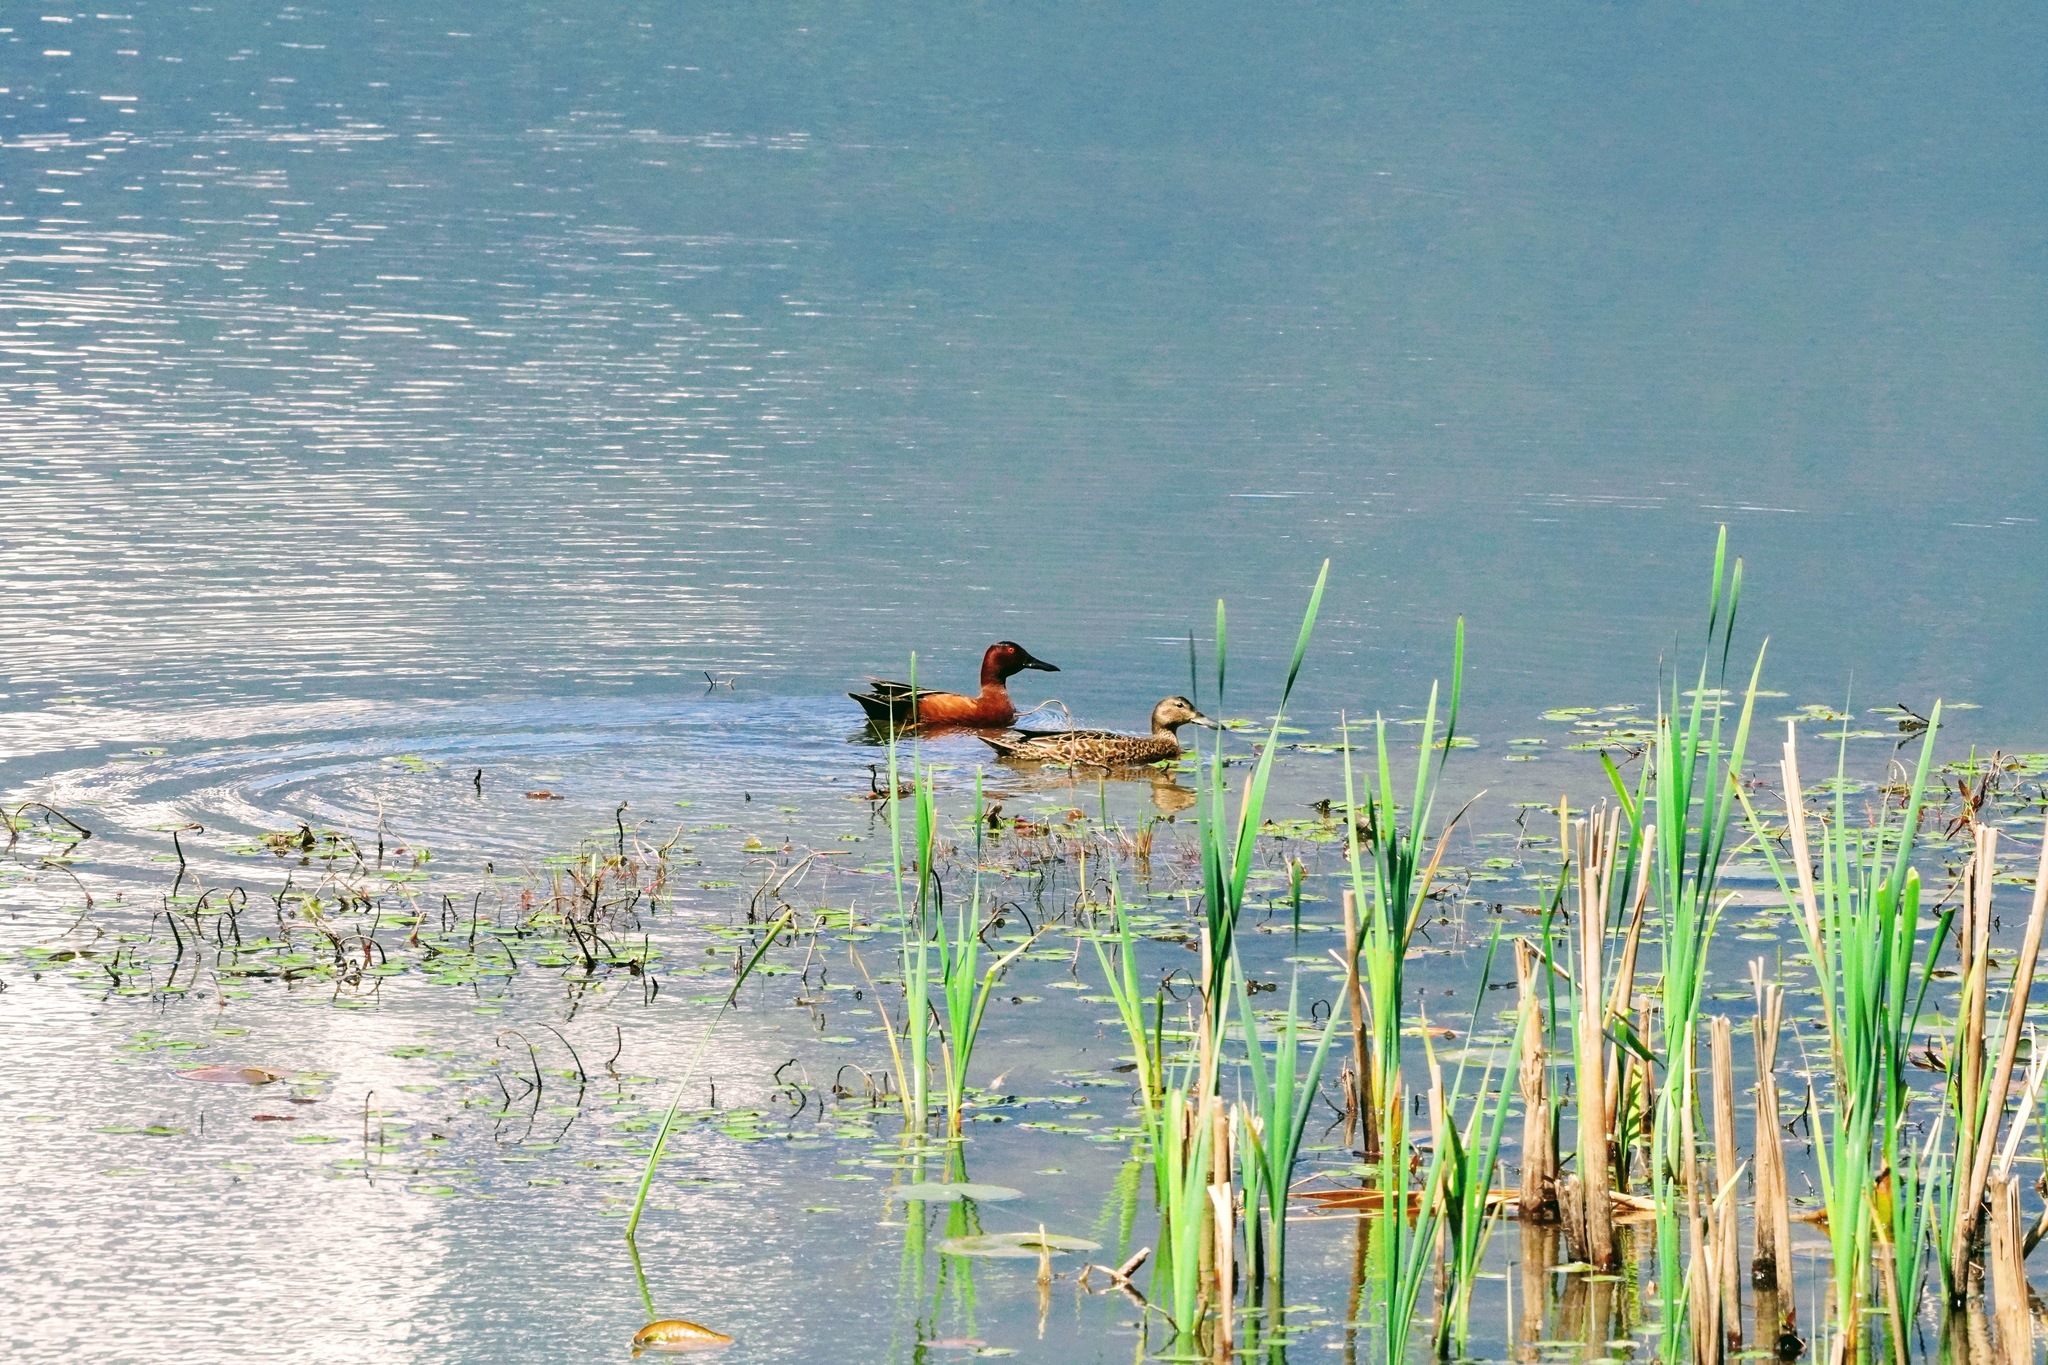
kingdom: Animalia
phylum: Chordata
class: Aves
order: Anseriformes
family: Anatidae
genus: Spatula
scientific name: Spatula cyanoptera
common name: Cinnamon teal
